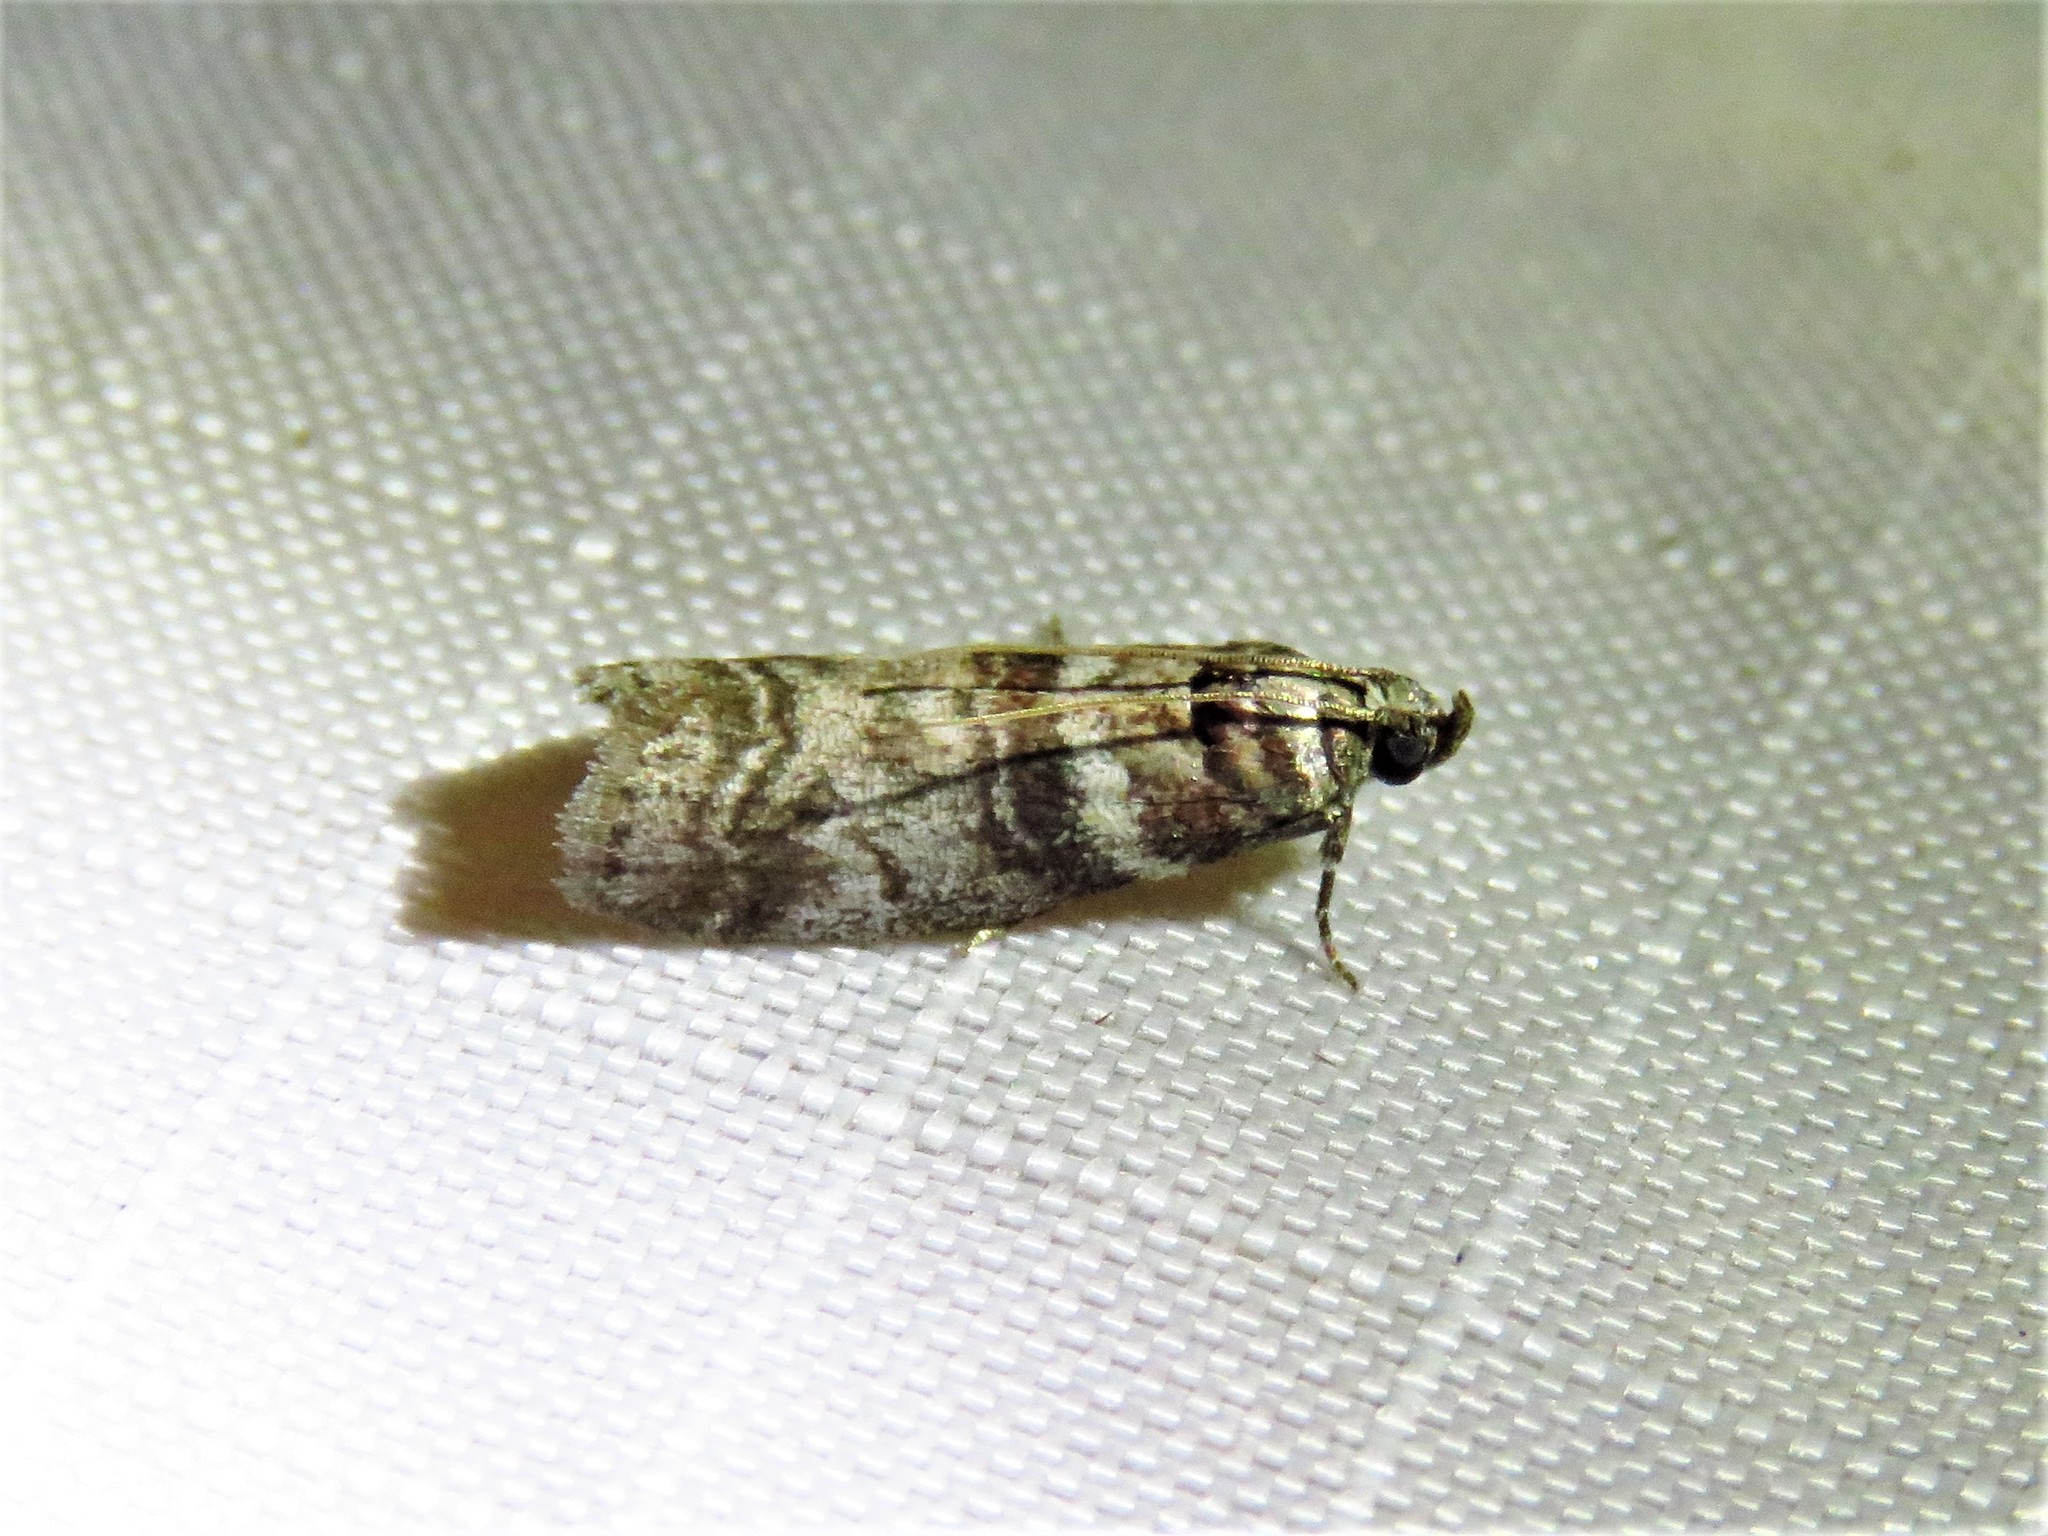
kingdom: Animalia
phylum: Arthropoda
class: Insecta
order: Lepidoptera
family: Pyralidae
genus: Sciota
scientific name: Sciota uvinella
